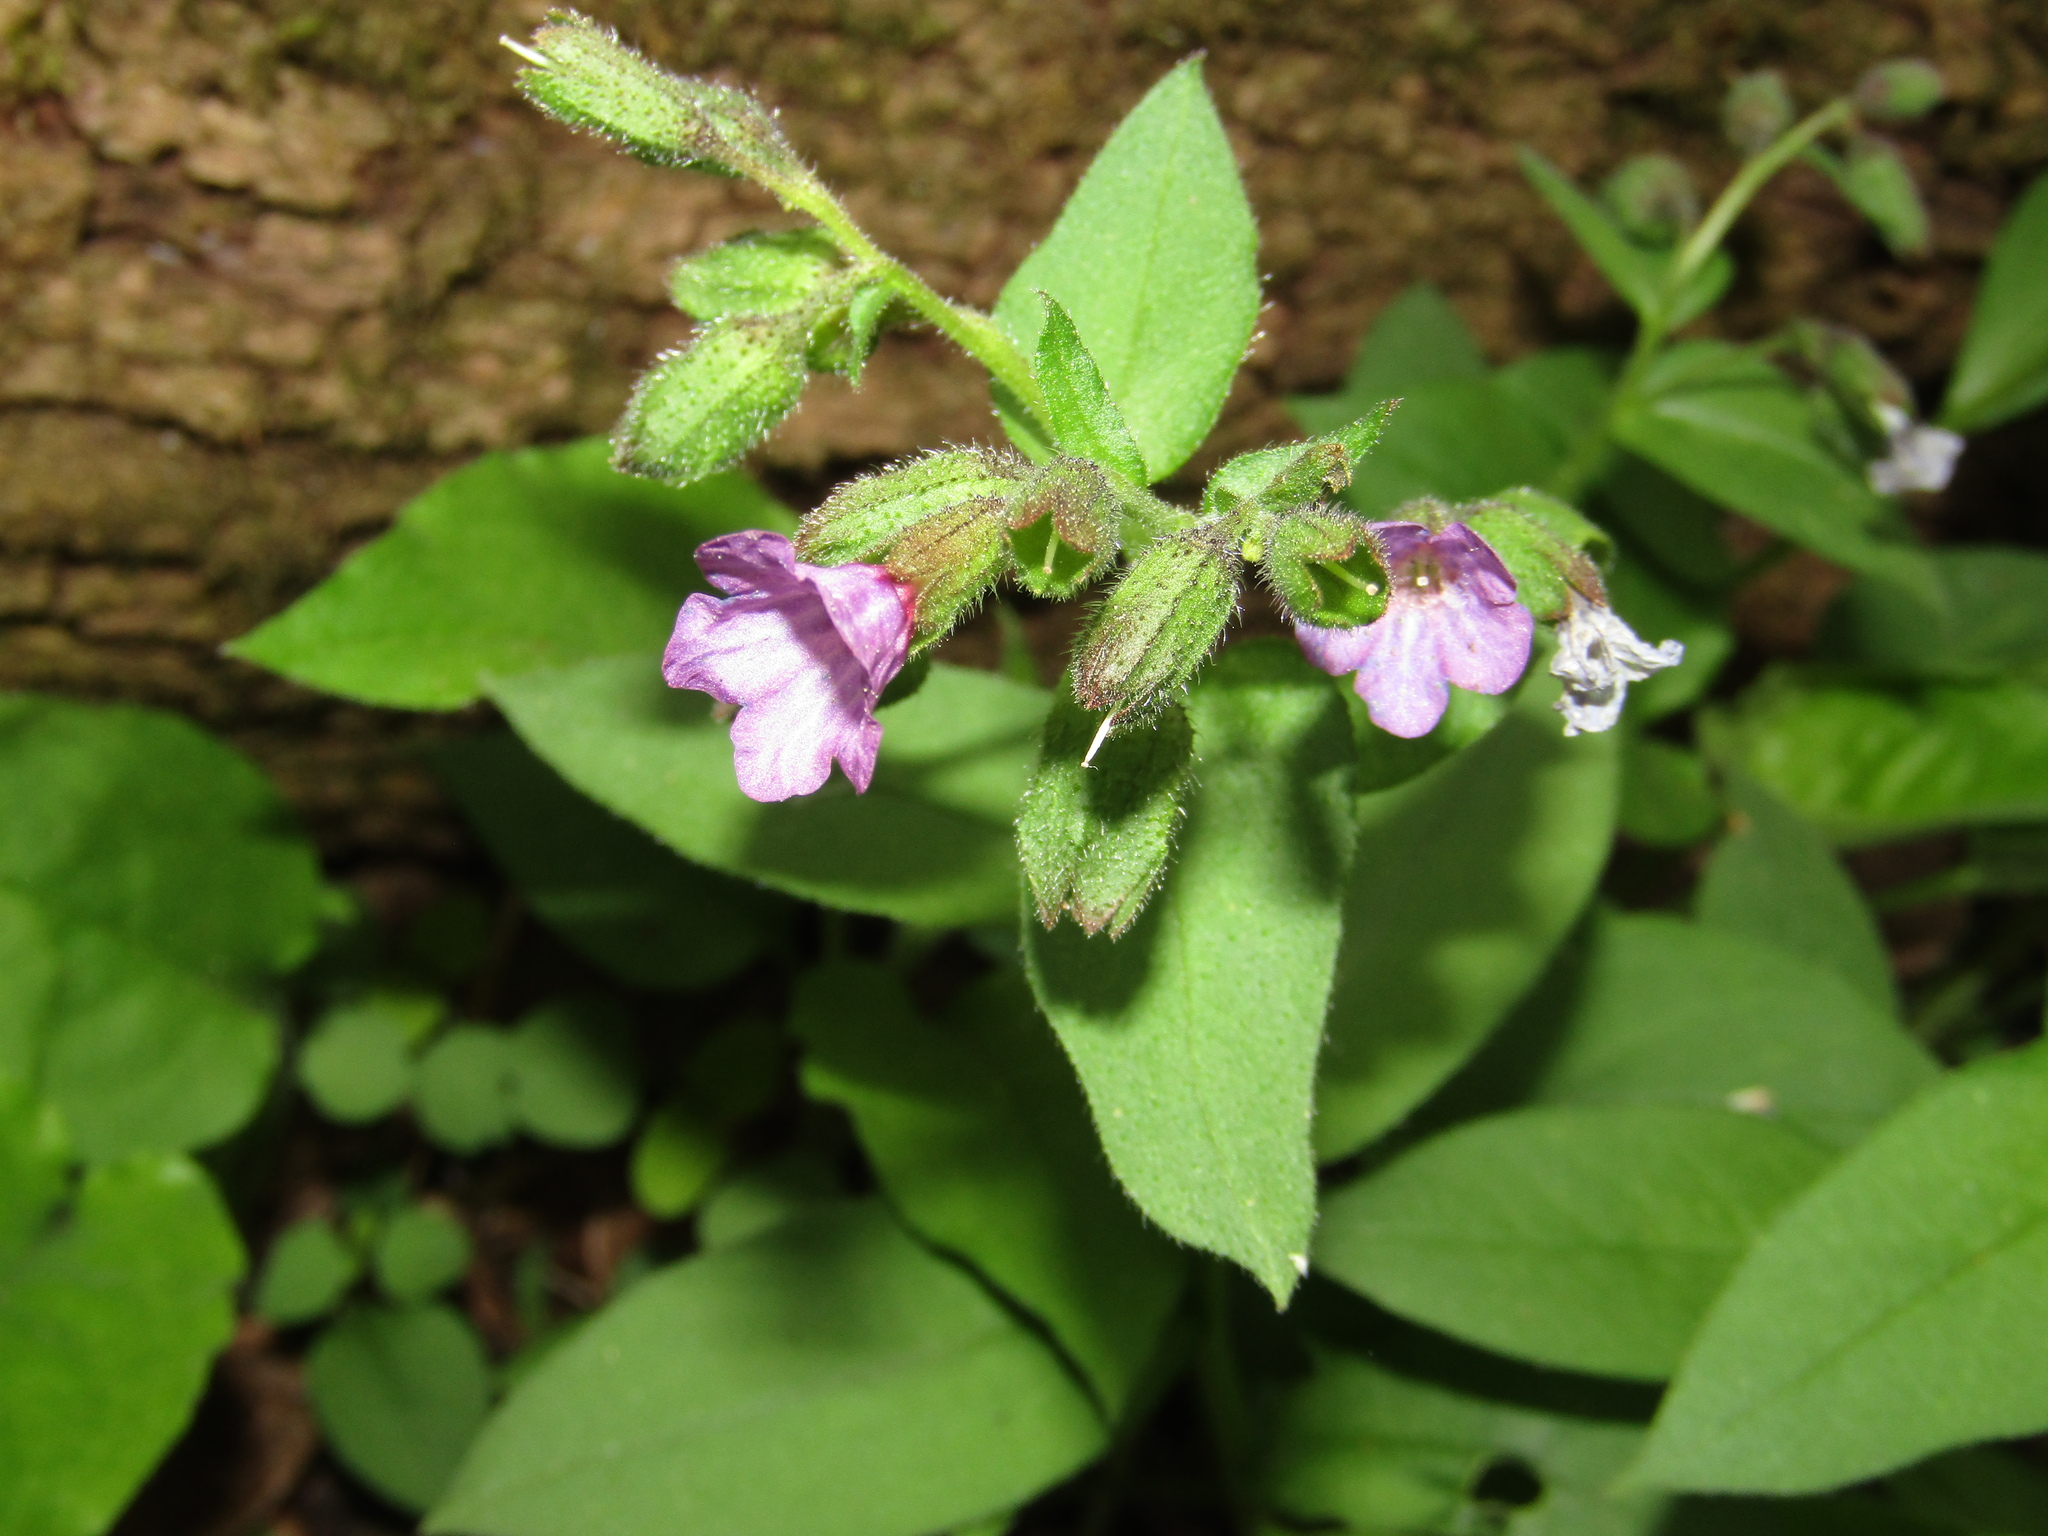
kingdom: Plantae
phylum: Tracheophyta
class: Magnoliopsida
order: Boraginales
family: Boraginaceae
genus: Pulmonaria
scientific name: Pulmonaria obscura
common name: Suffolk lungwort
